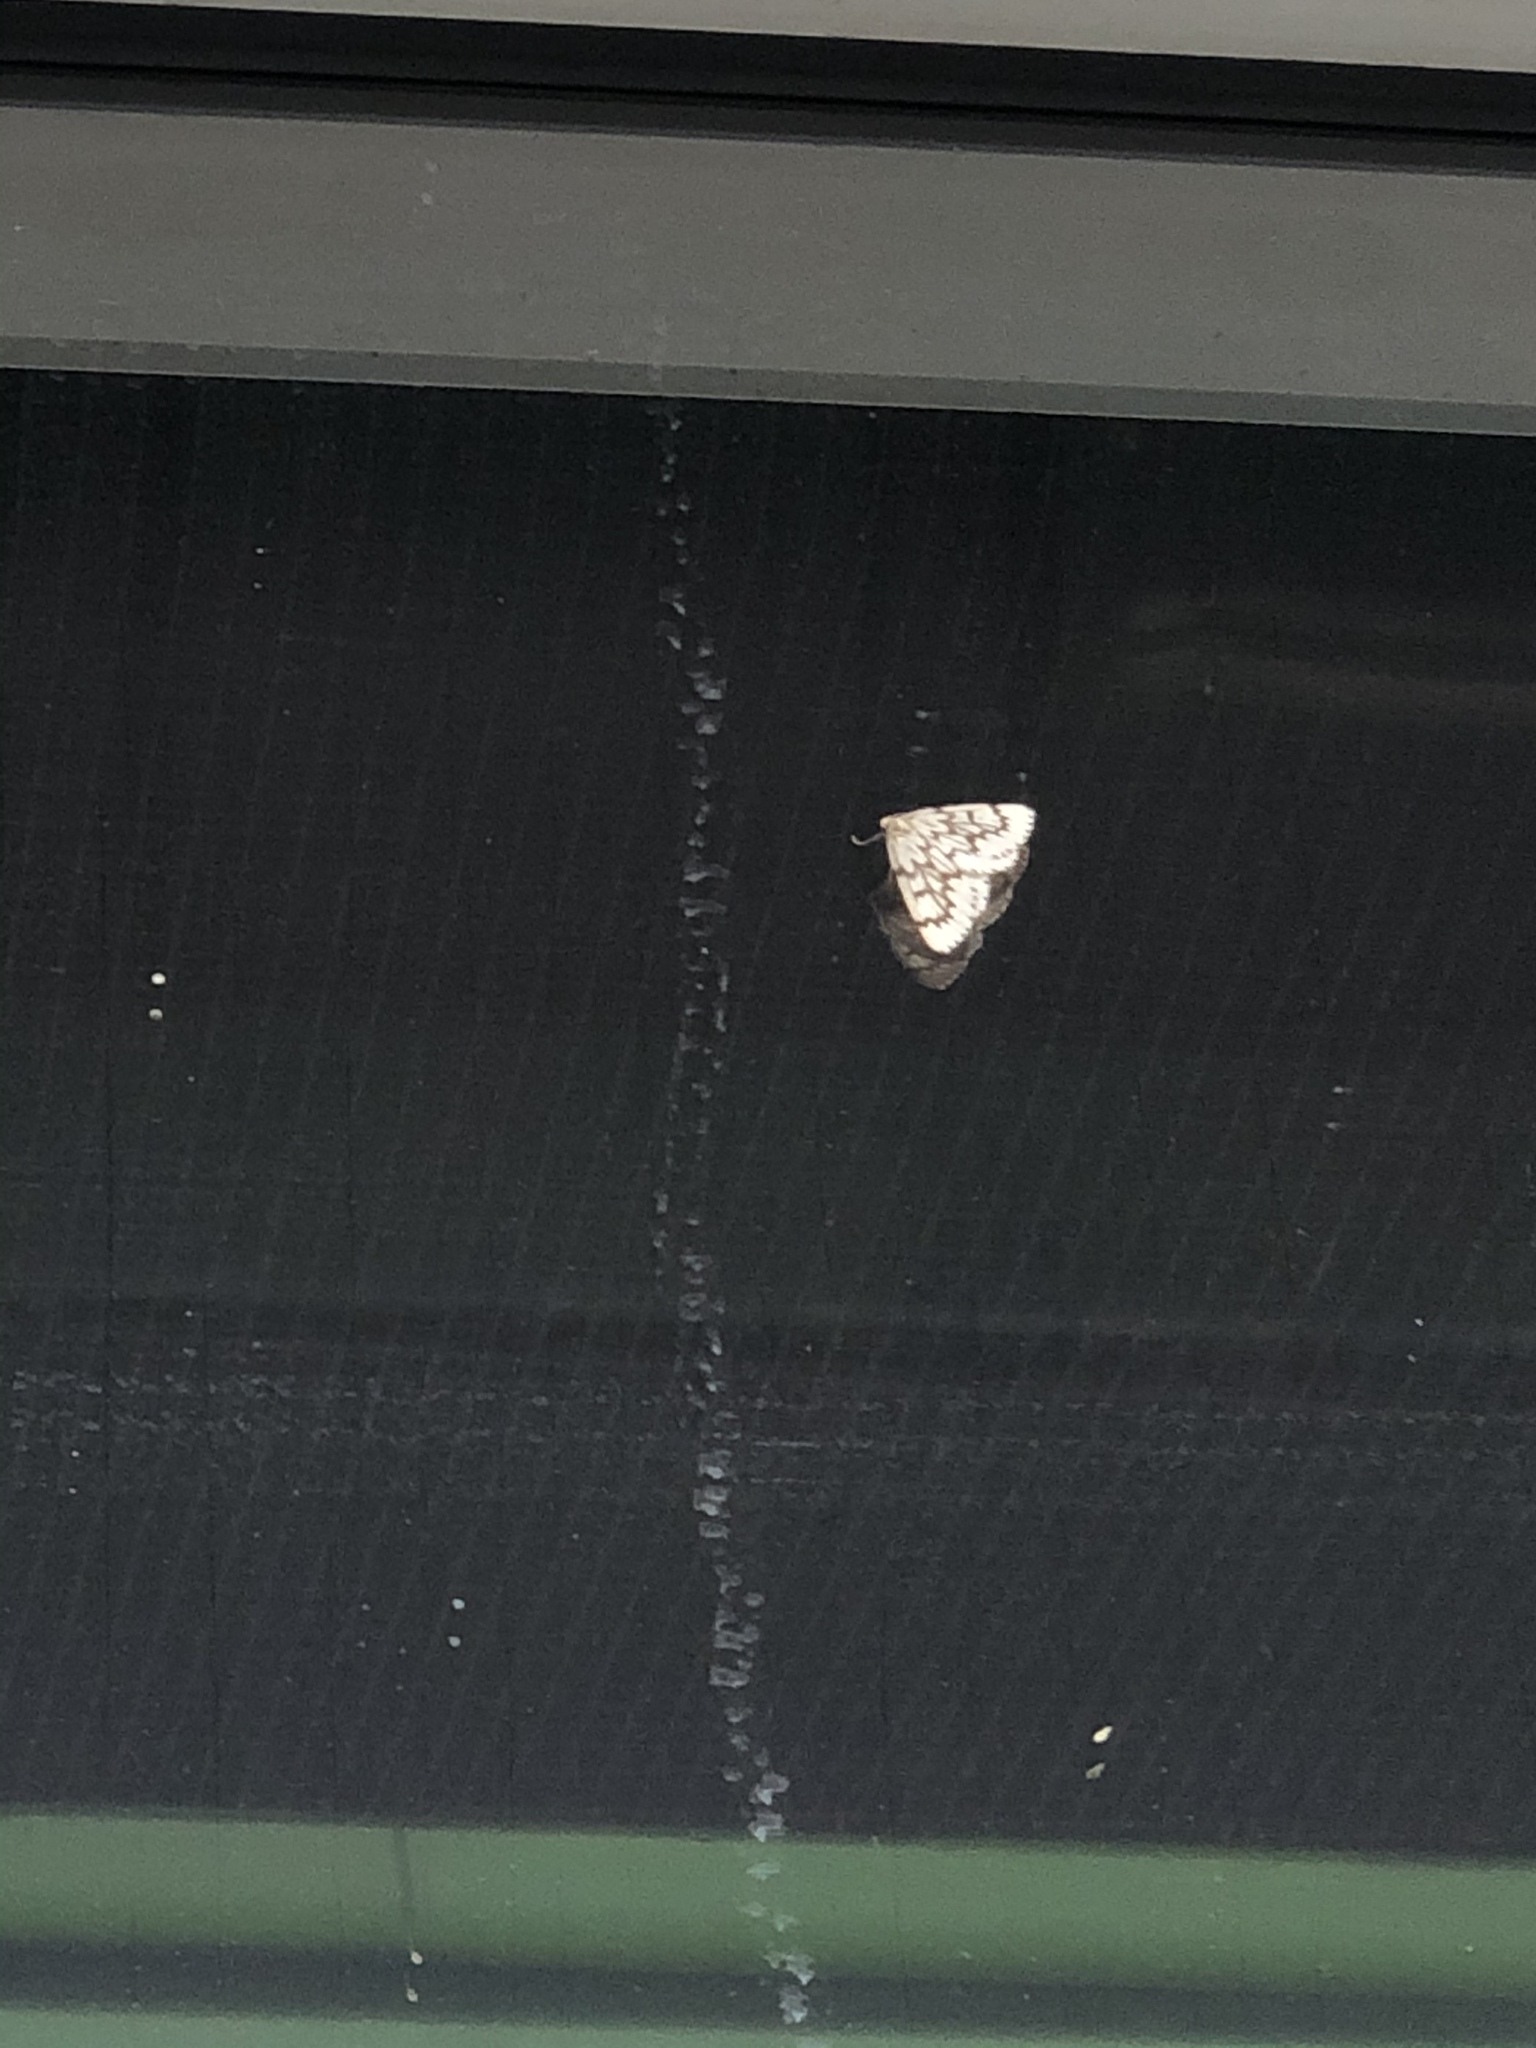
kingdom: Animalia
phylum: Arthropoda
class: Insecta
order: Lepidoptera
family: Geometridae
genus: Nepytia
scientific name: Nepytia phantasmaria
